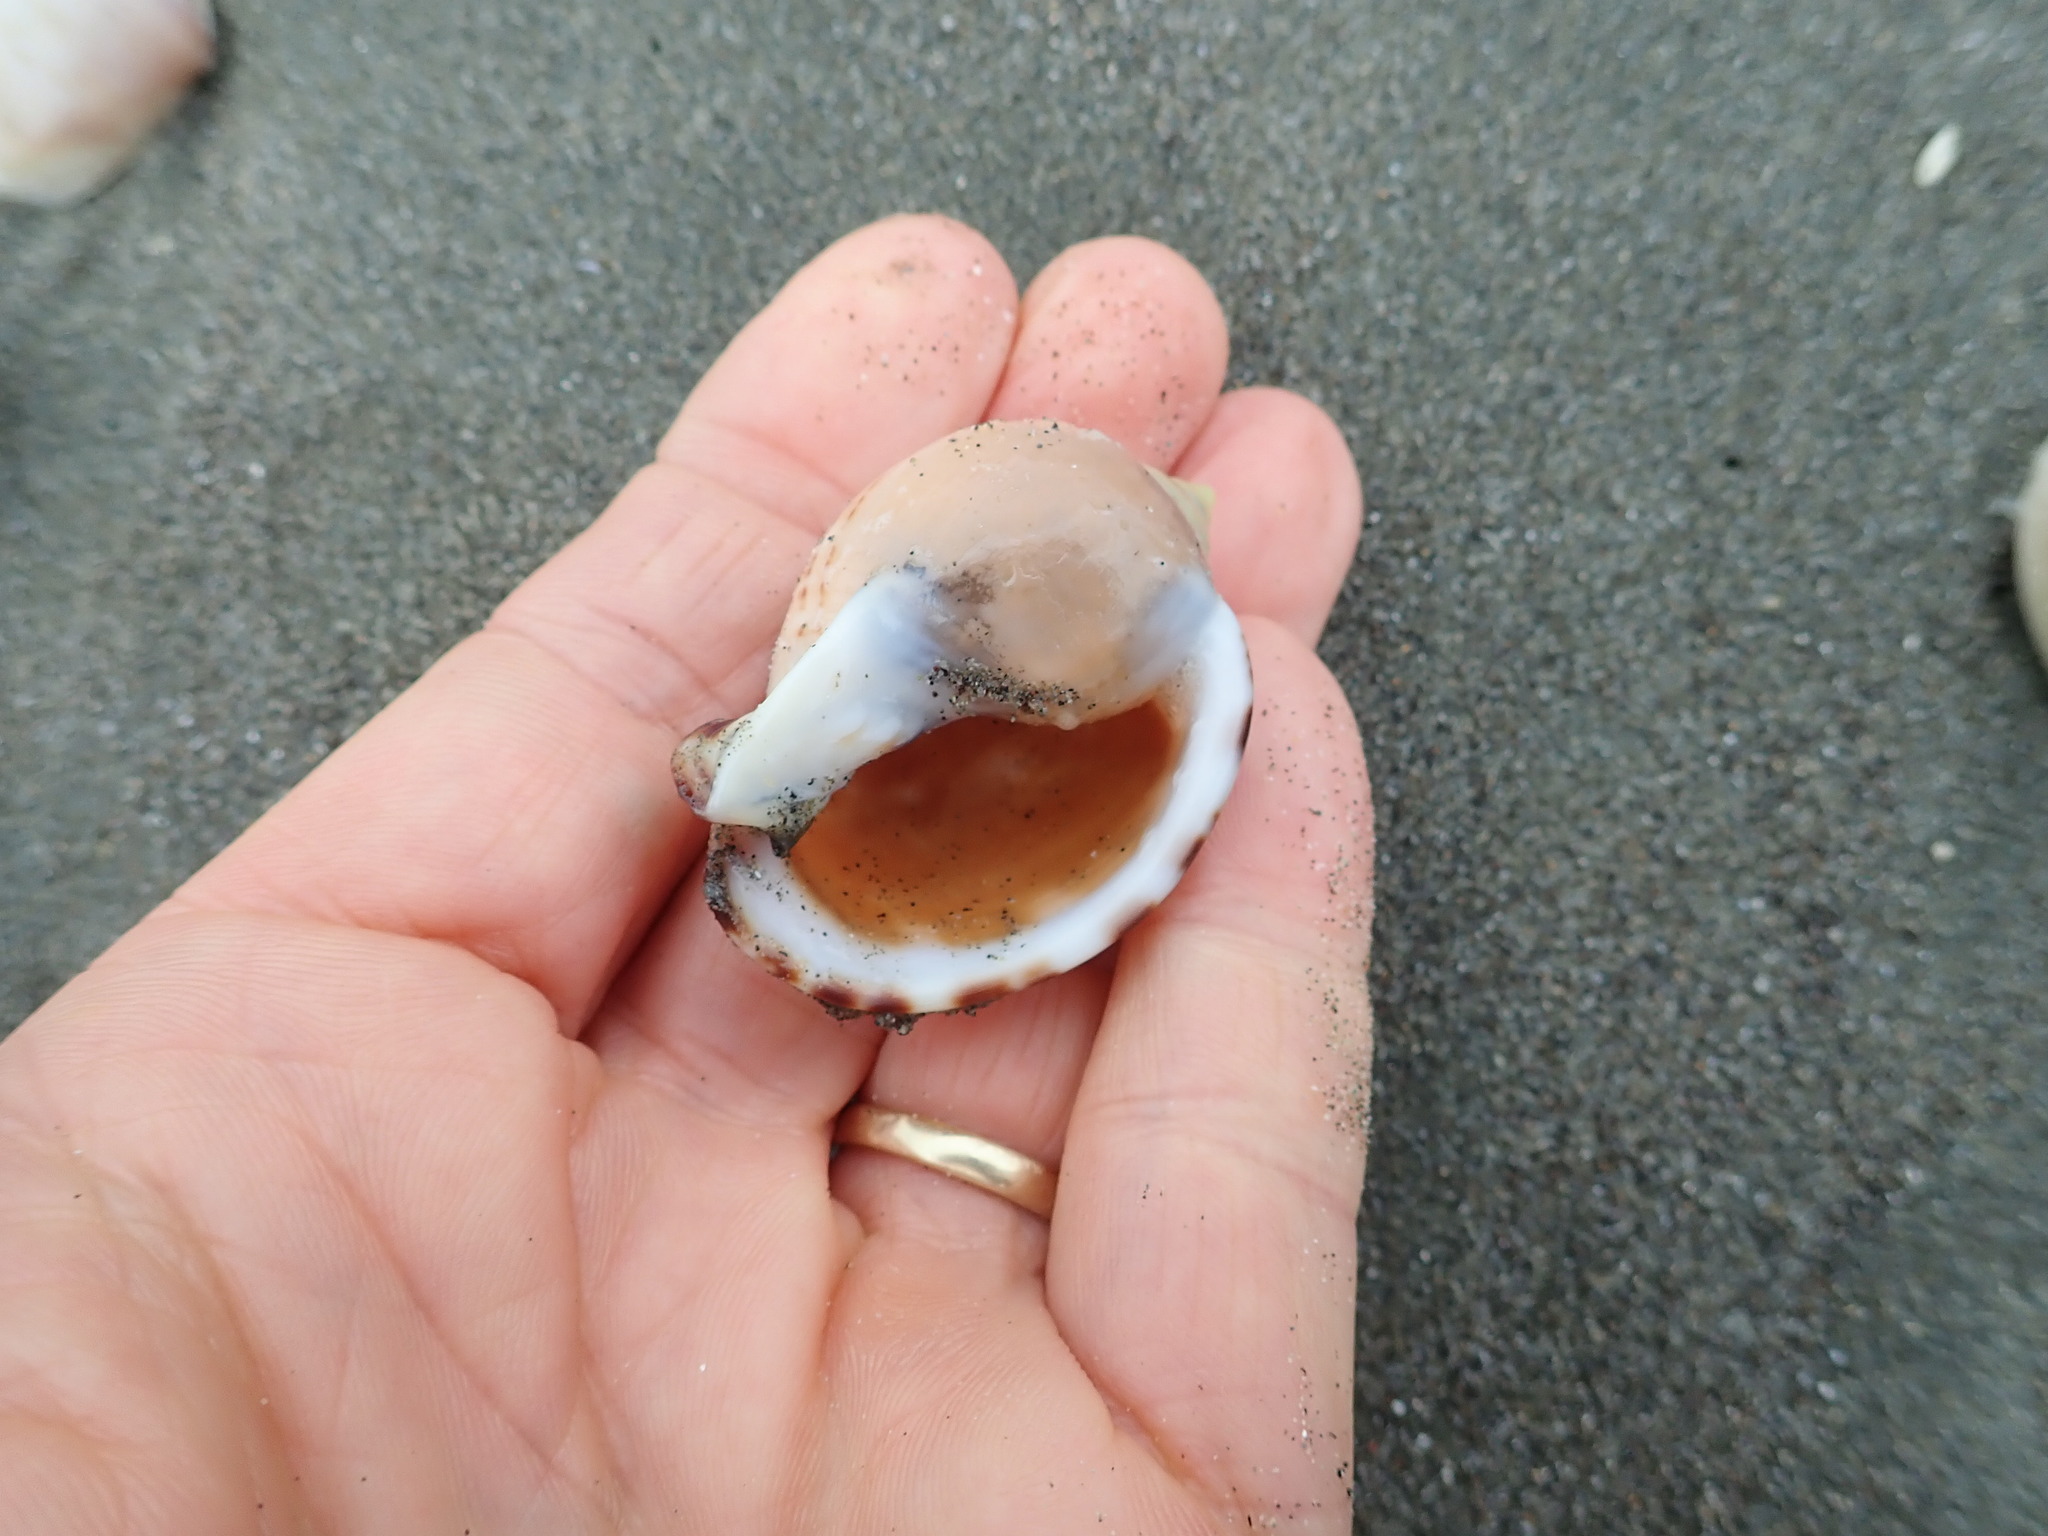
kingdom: Animalia
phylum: Mollusca
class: Gastropoda
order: Littorinimorpha
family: Cassidae
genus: Semicassis
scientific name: Semicassis pyrum
